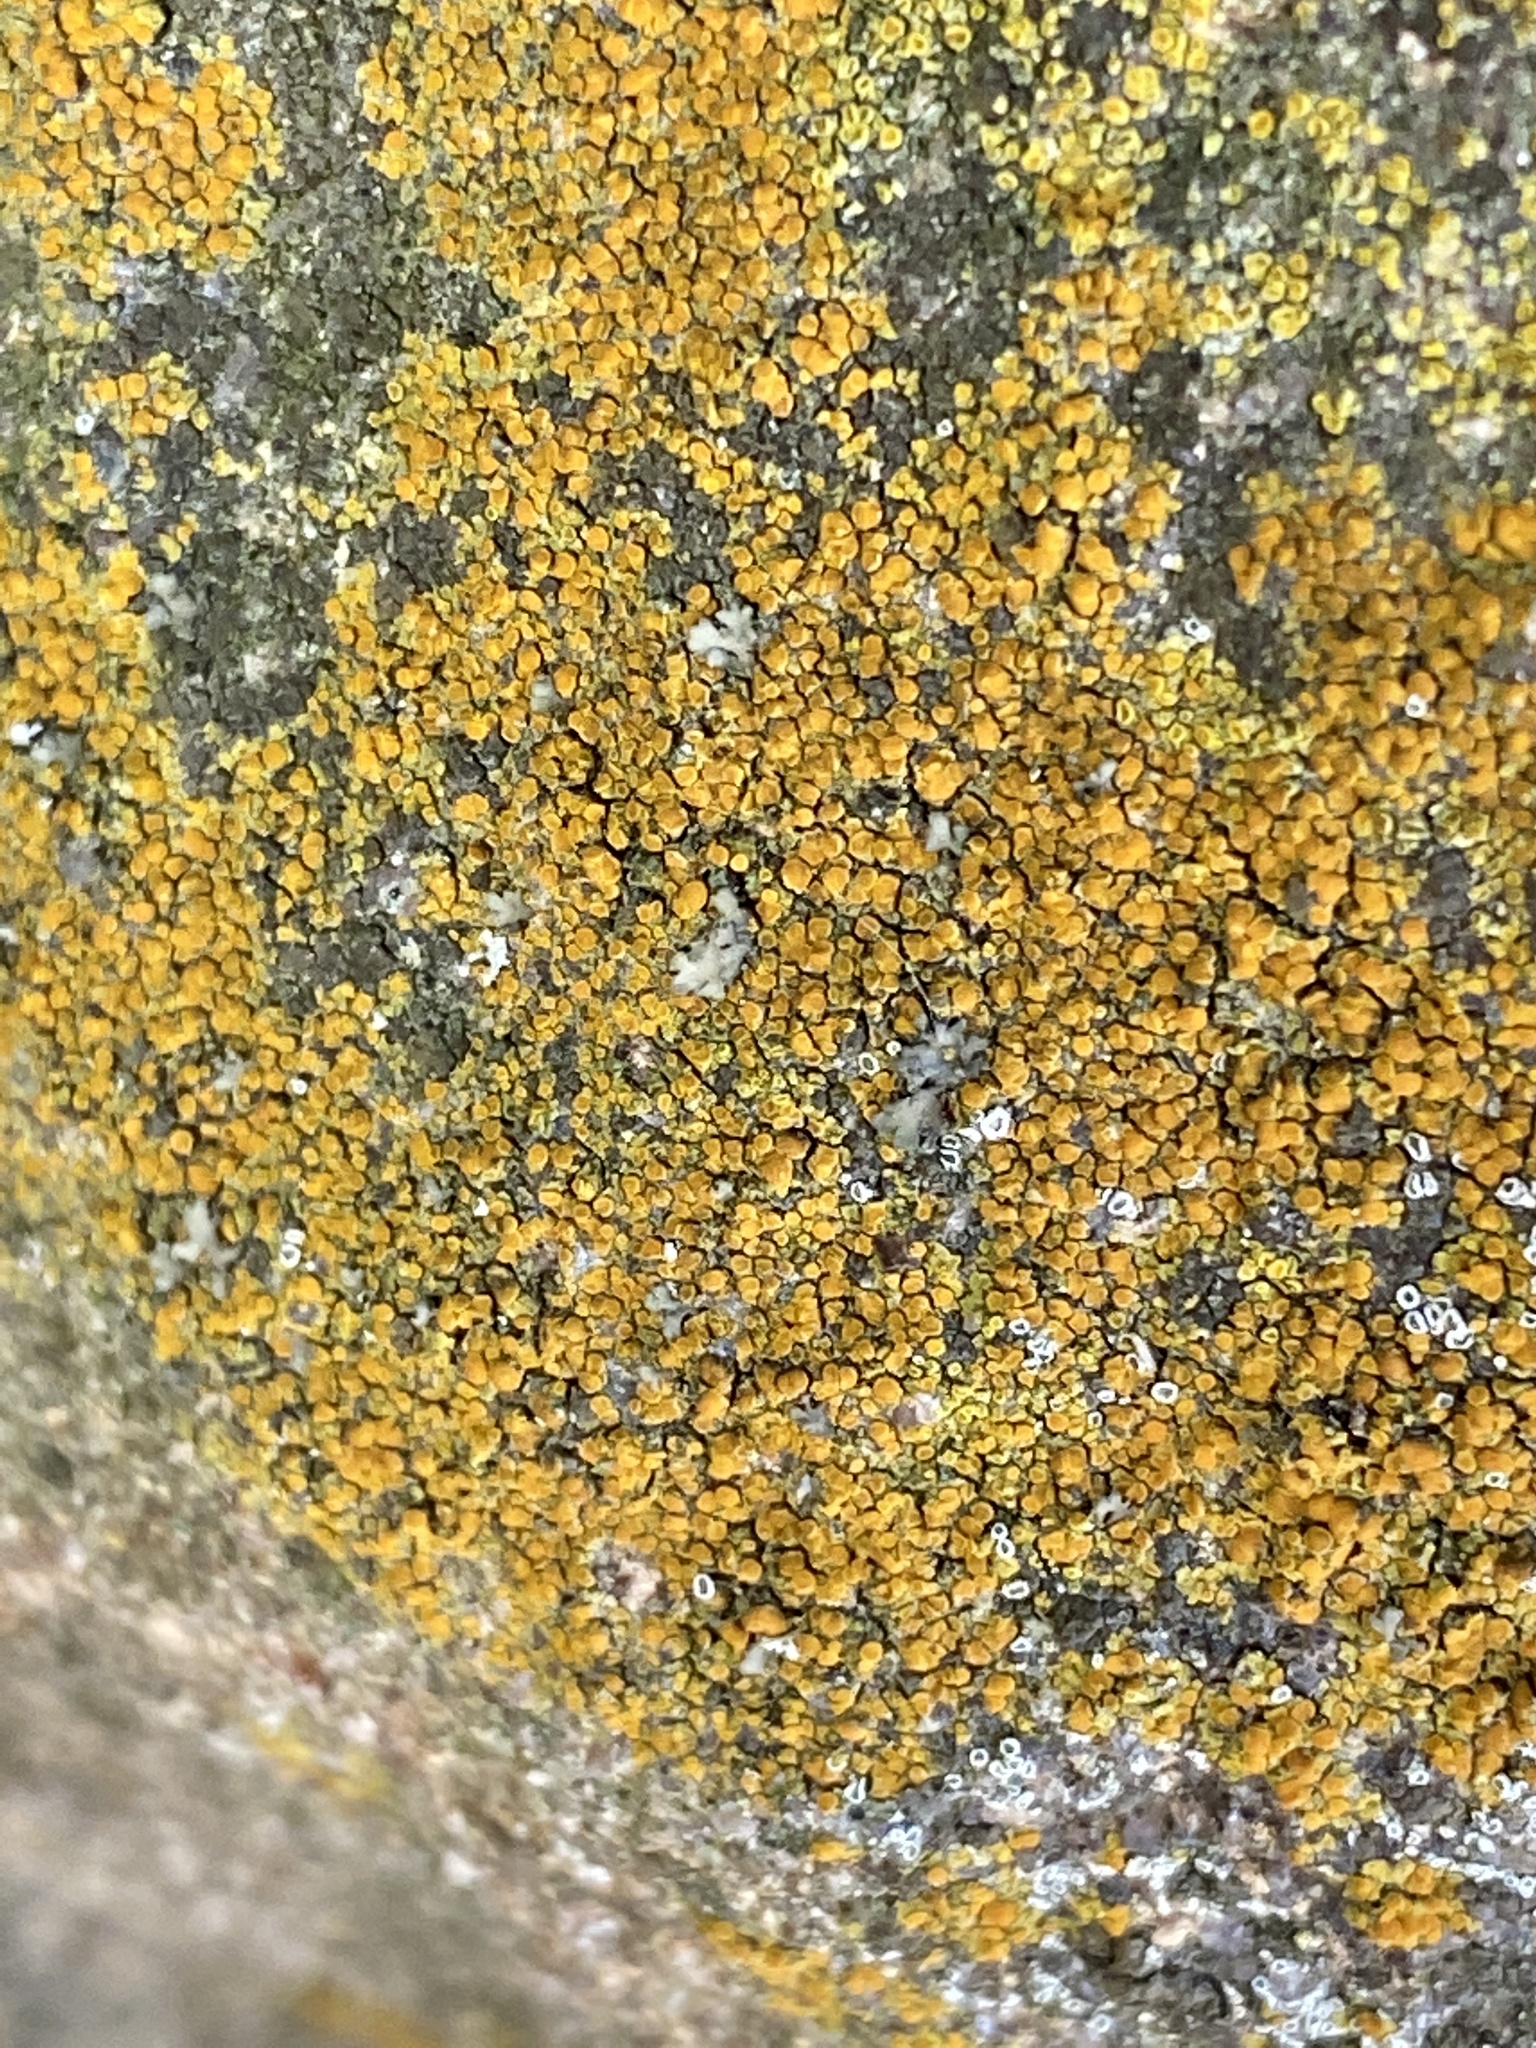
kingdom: Fungi
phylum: Ascomycota
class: Lecanoromycetes
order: Teloschistales
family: Teloschistaceae
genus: Xanthocarpia
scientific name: Xanthocarpia feracissima
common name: Sidewalk firedot
